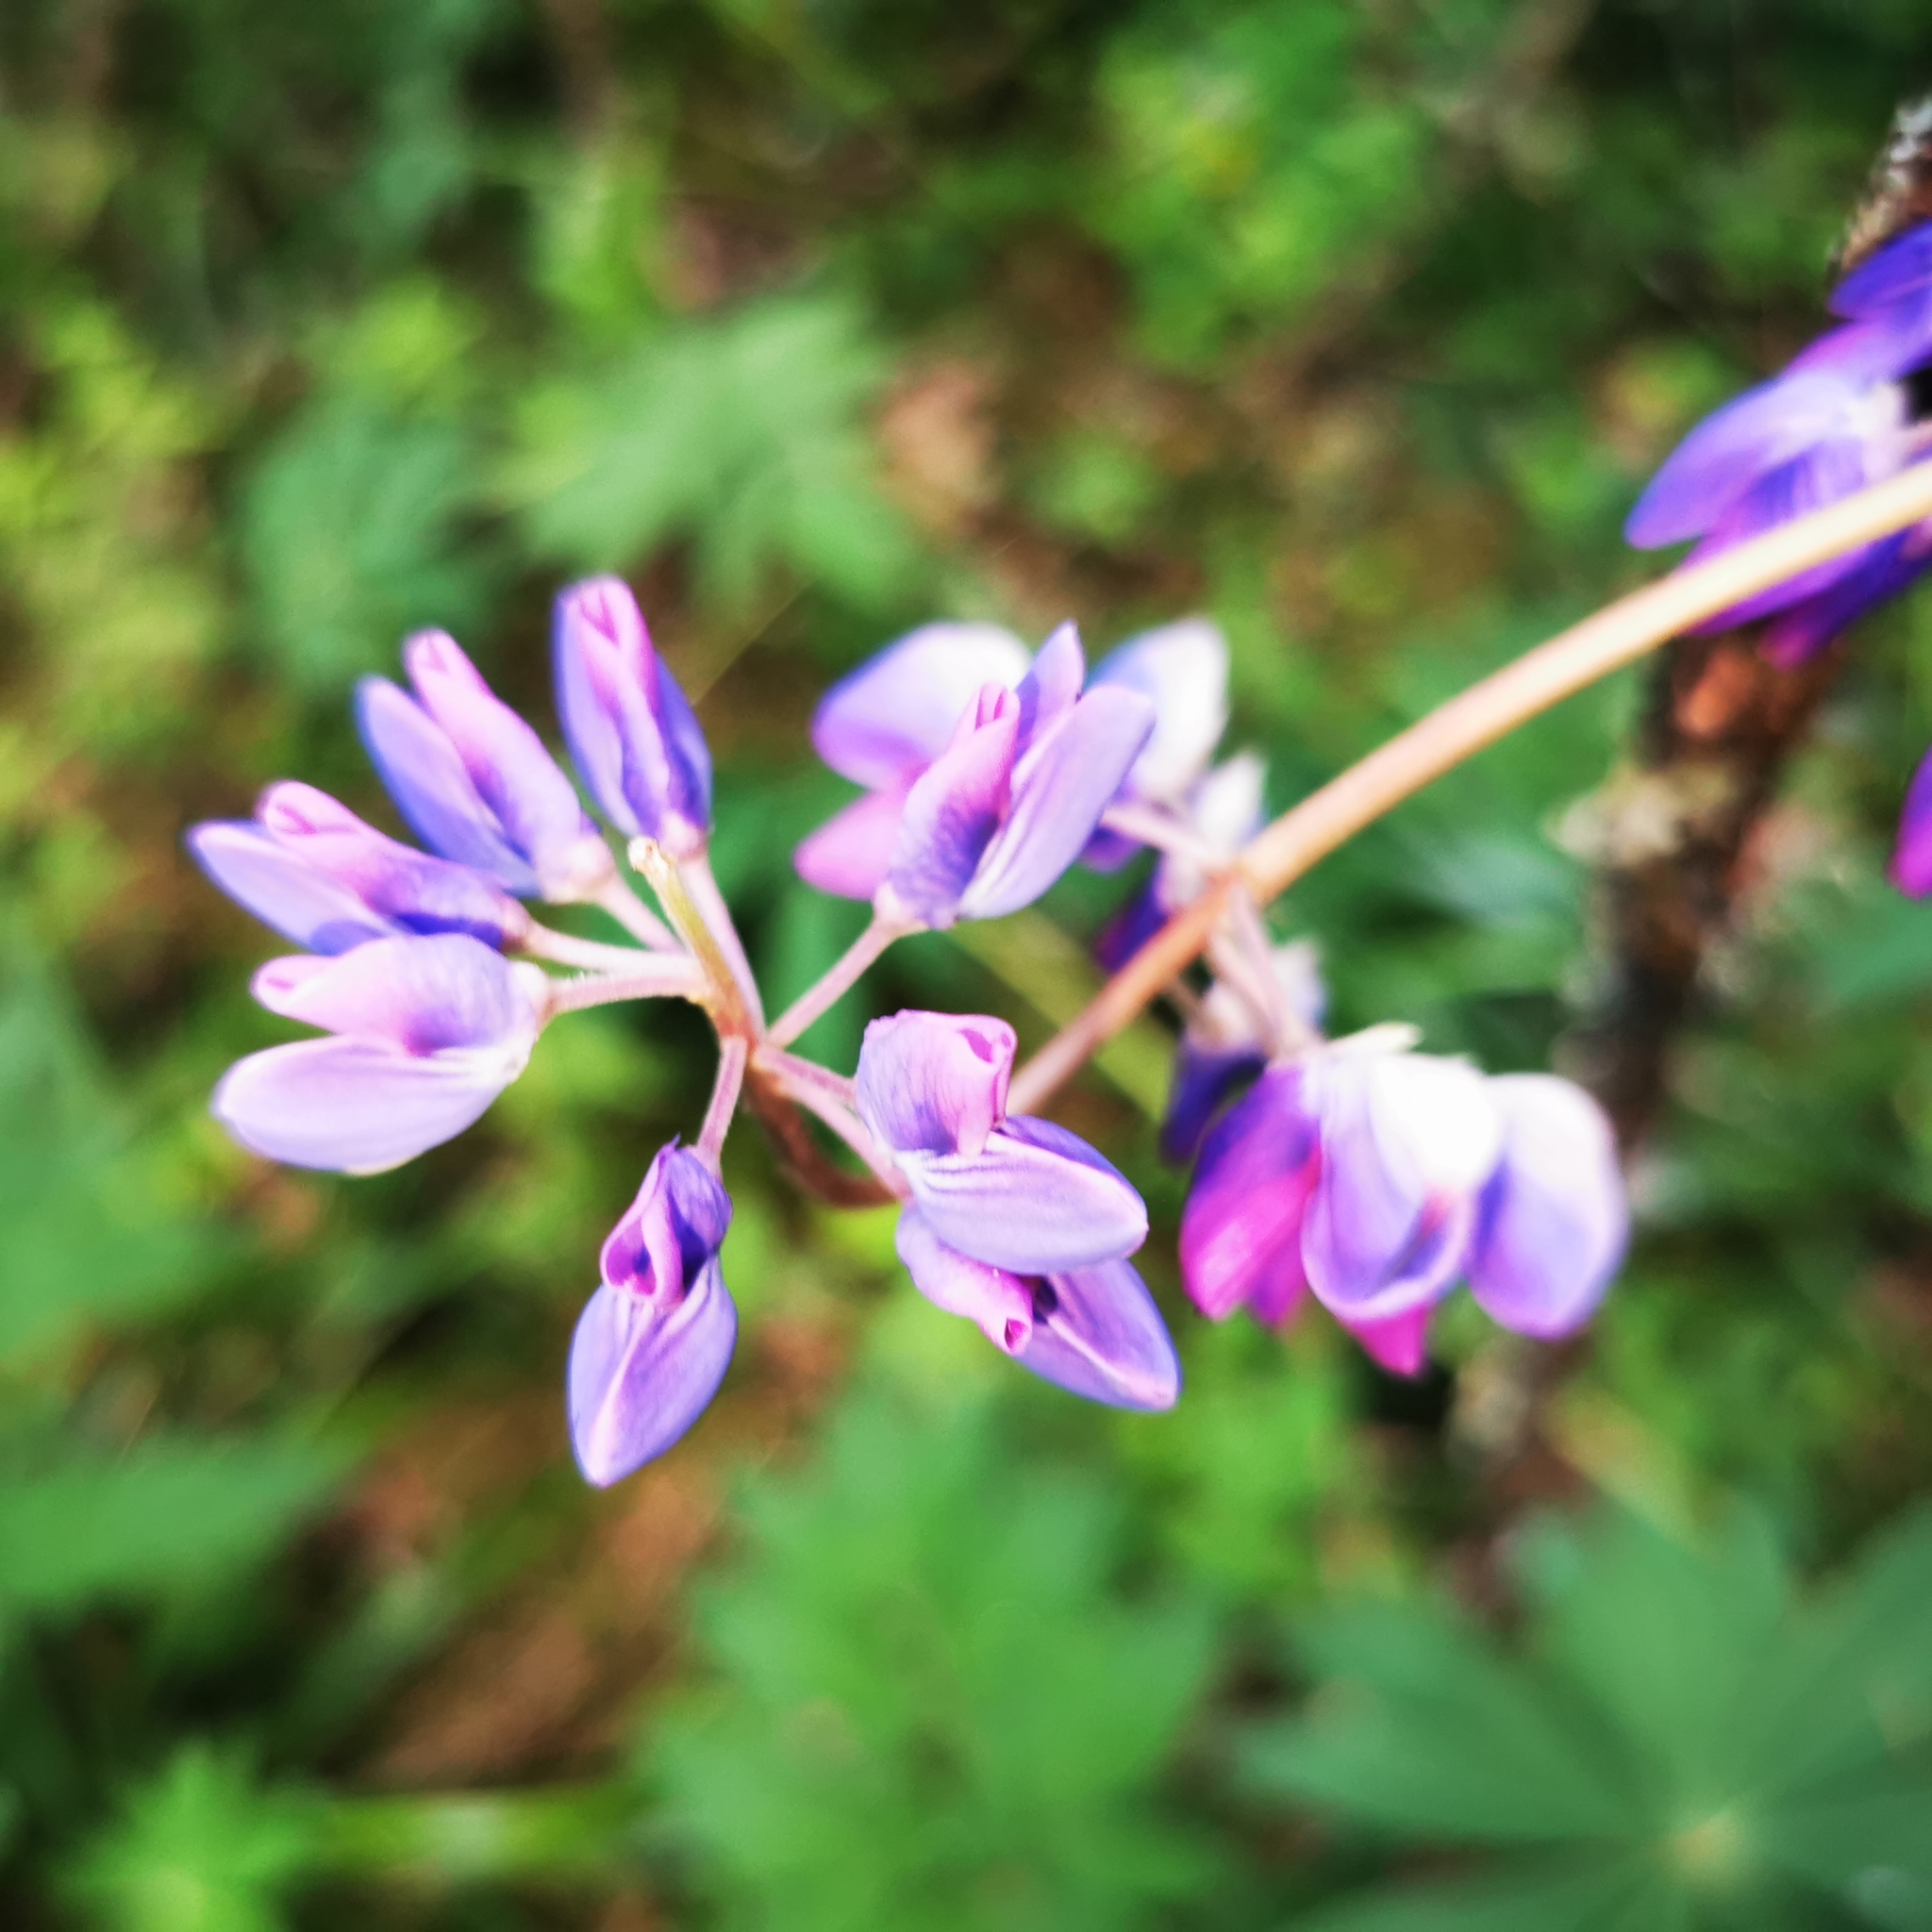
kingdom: Plantae
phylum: Tracheophyta
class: Magnoliopsida
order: Fabales
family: Fabaceae
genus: Lupinus
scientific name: Lupinus polyphyllus
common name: Garden lupin
